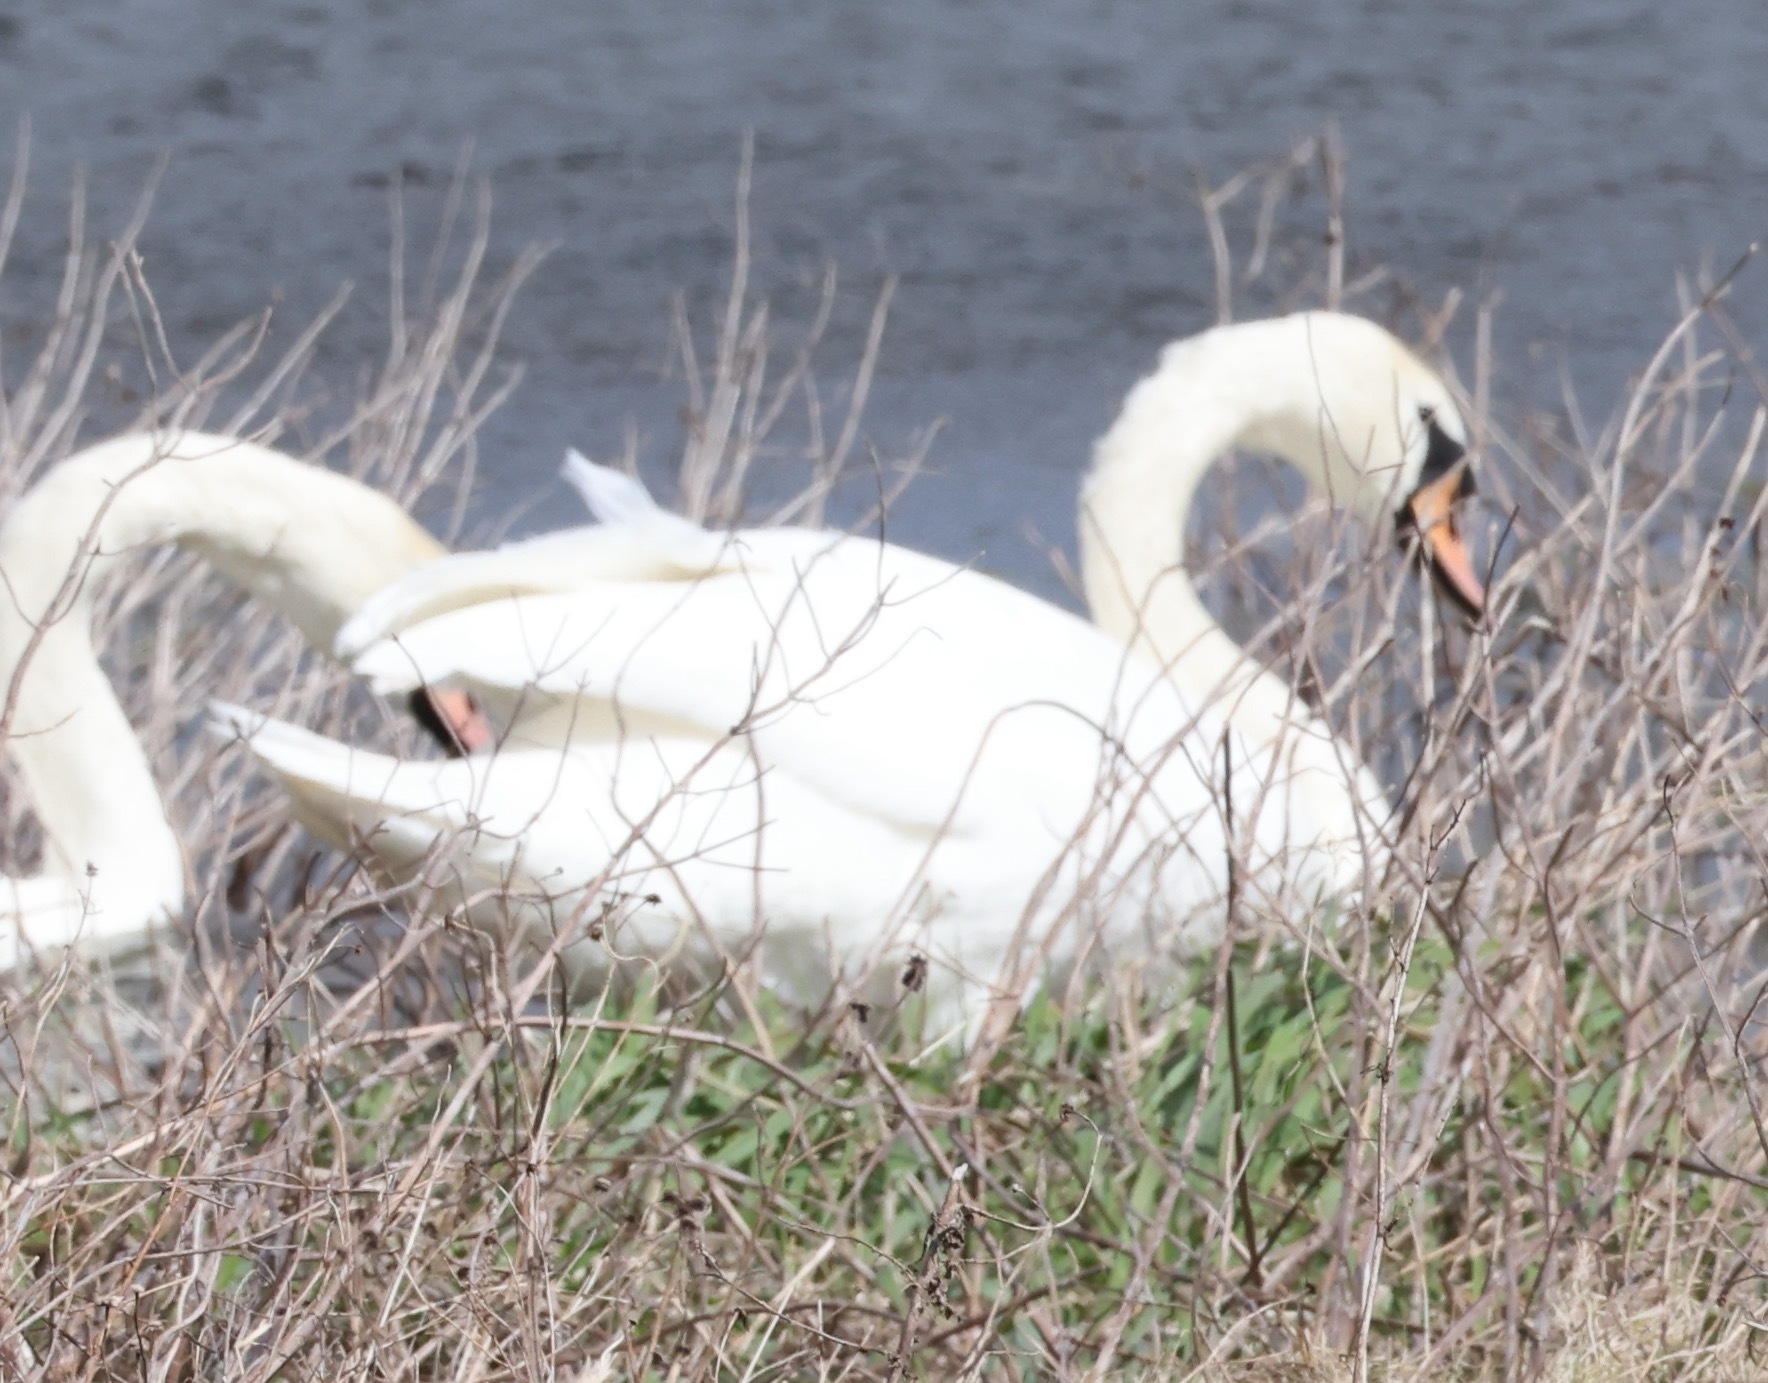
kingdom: Animalia
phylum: Chordata
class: Aves
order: Anseriformes
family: Anatidae
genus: Cygnus
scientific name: Cygnus olor
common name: Mute swan
